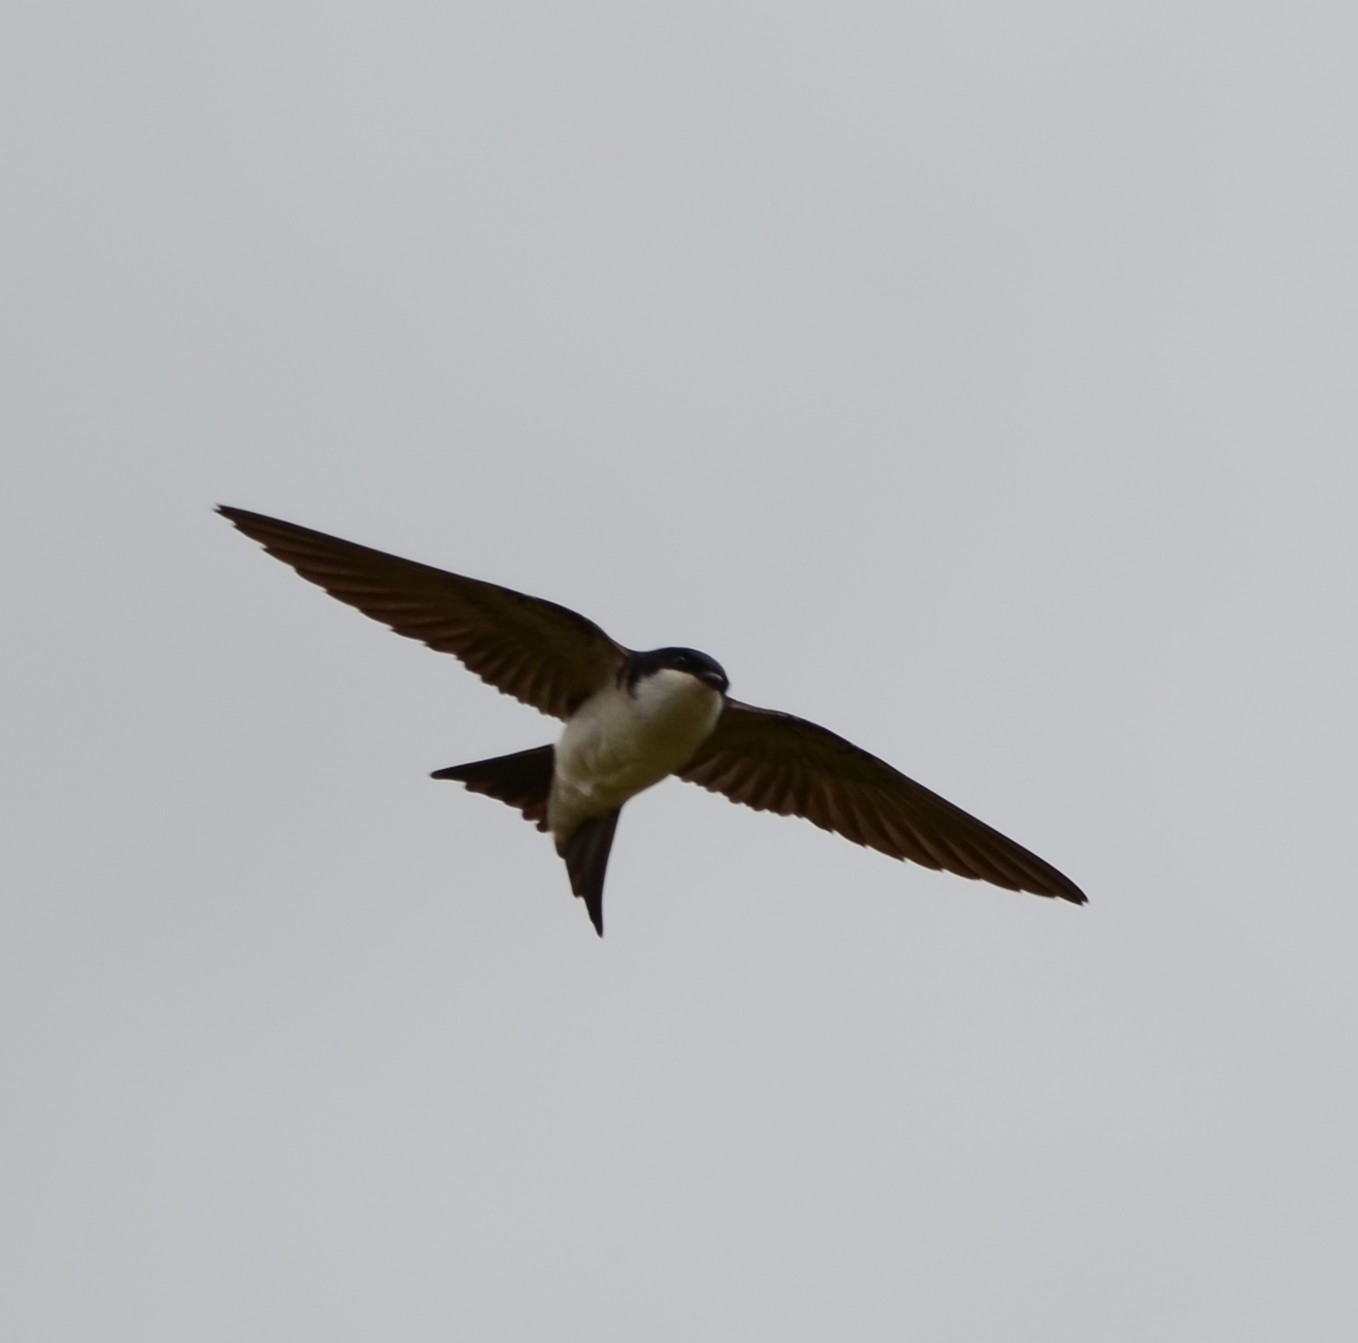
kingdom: Animalia
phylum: Chordata
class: Aves
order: Passeriformes
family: Hirundinidae
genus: Delichon
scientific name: Delichon urbicum
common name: Common house martin
